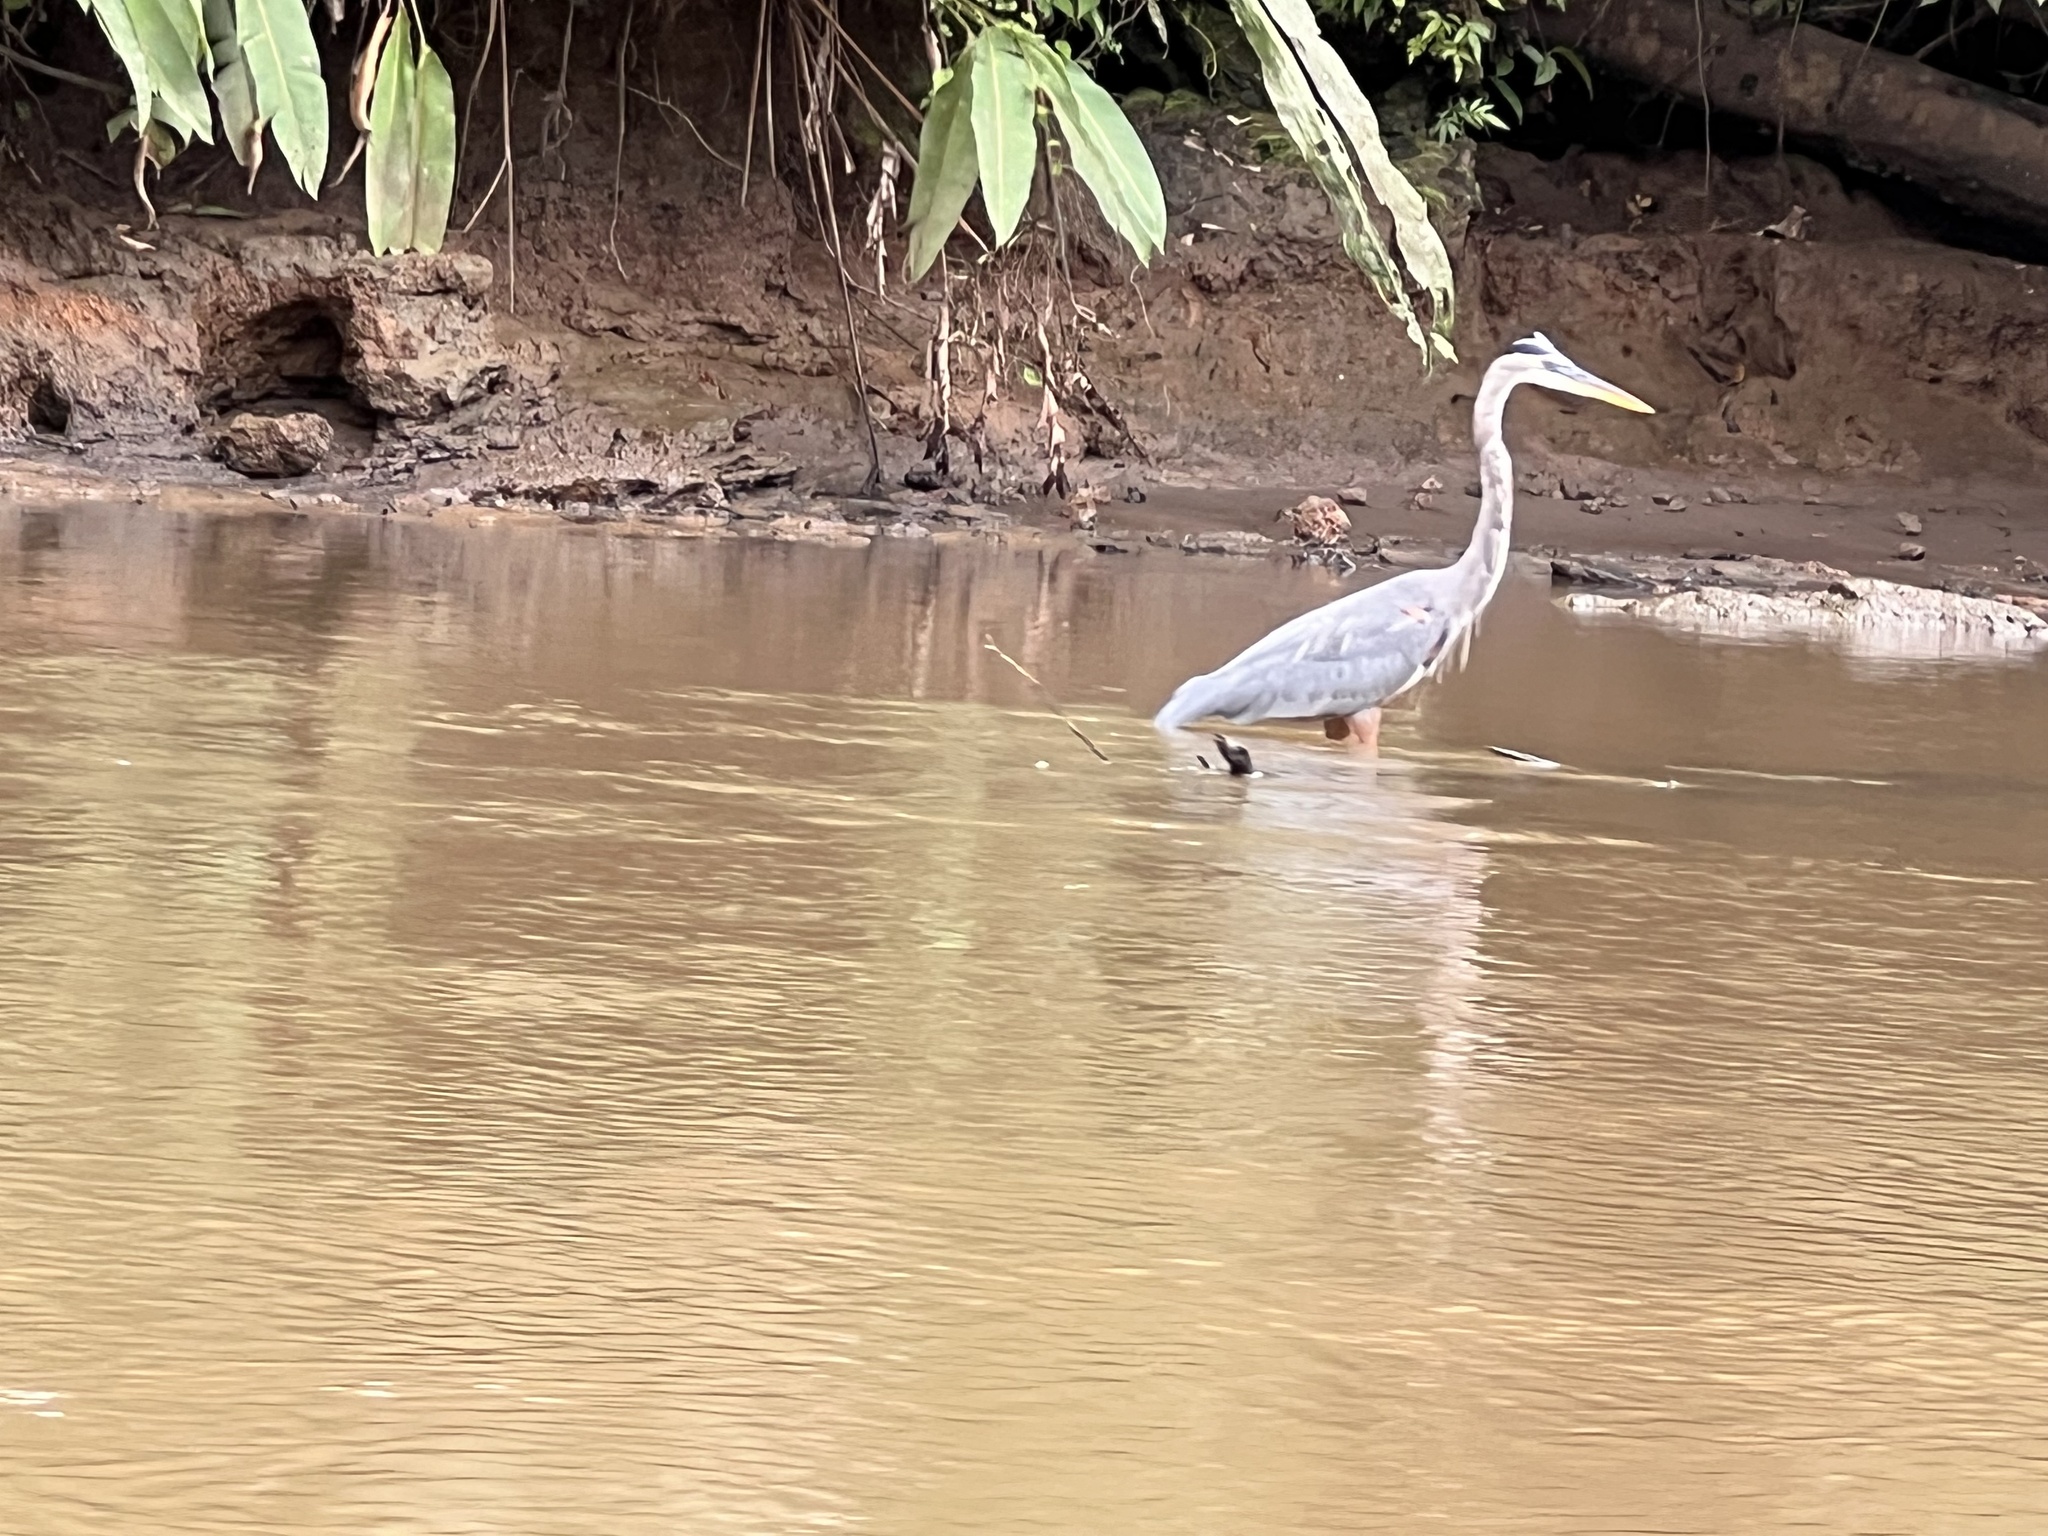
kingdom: Animalia
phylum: Chordata
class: Aves
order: Pelecaniformes
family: Ardeidae
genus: Ardea
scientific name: Ardea herodias
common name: Great blue heron
